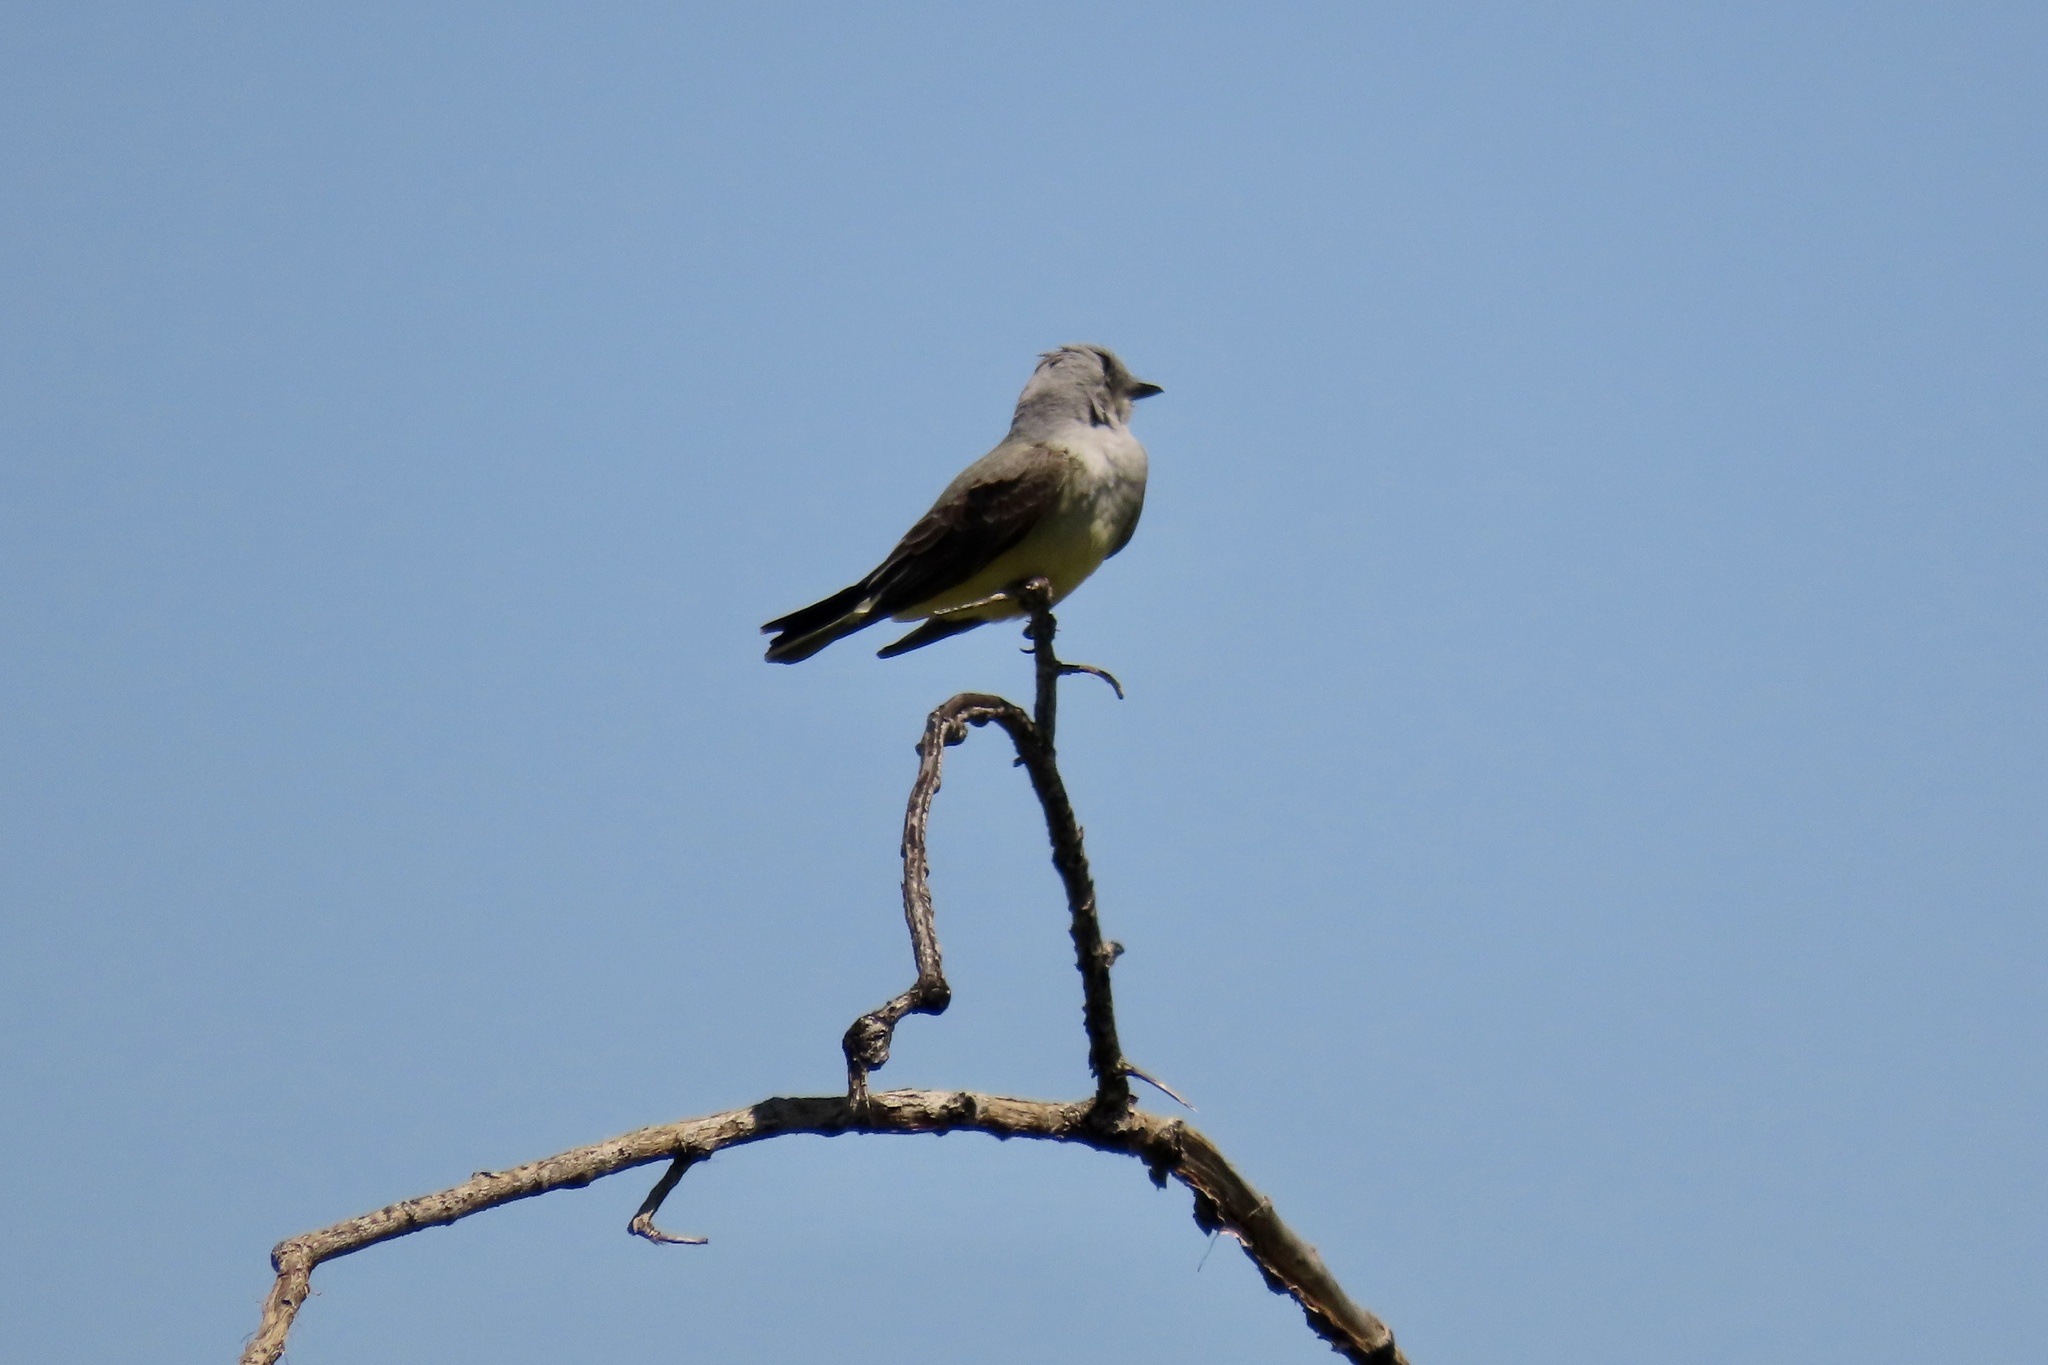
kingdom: Animalia
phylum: Chordata
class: Aves
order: Passeriformes
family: Tyrannidae
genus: Tyrannus
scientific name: Tyrannus verticalis
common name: Western kingbird
